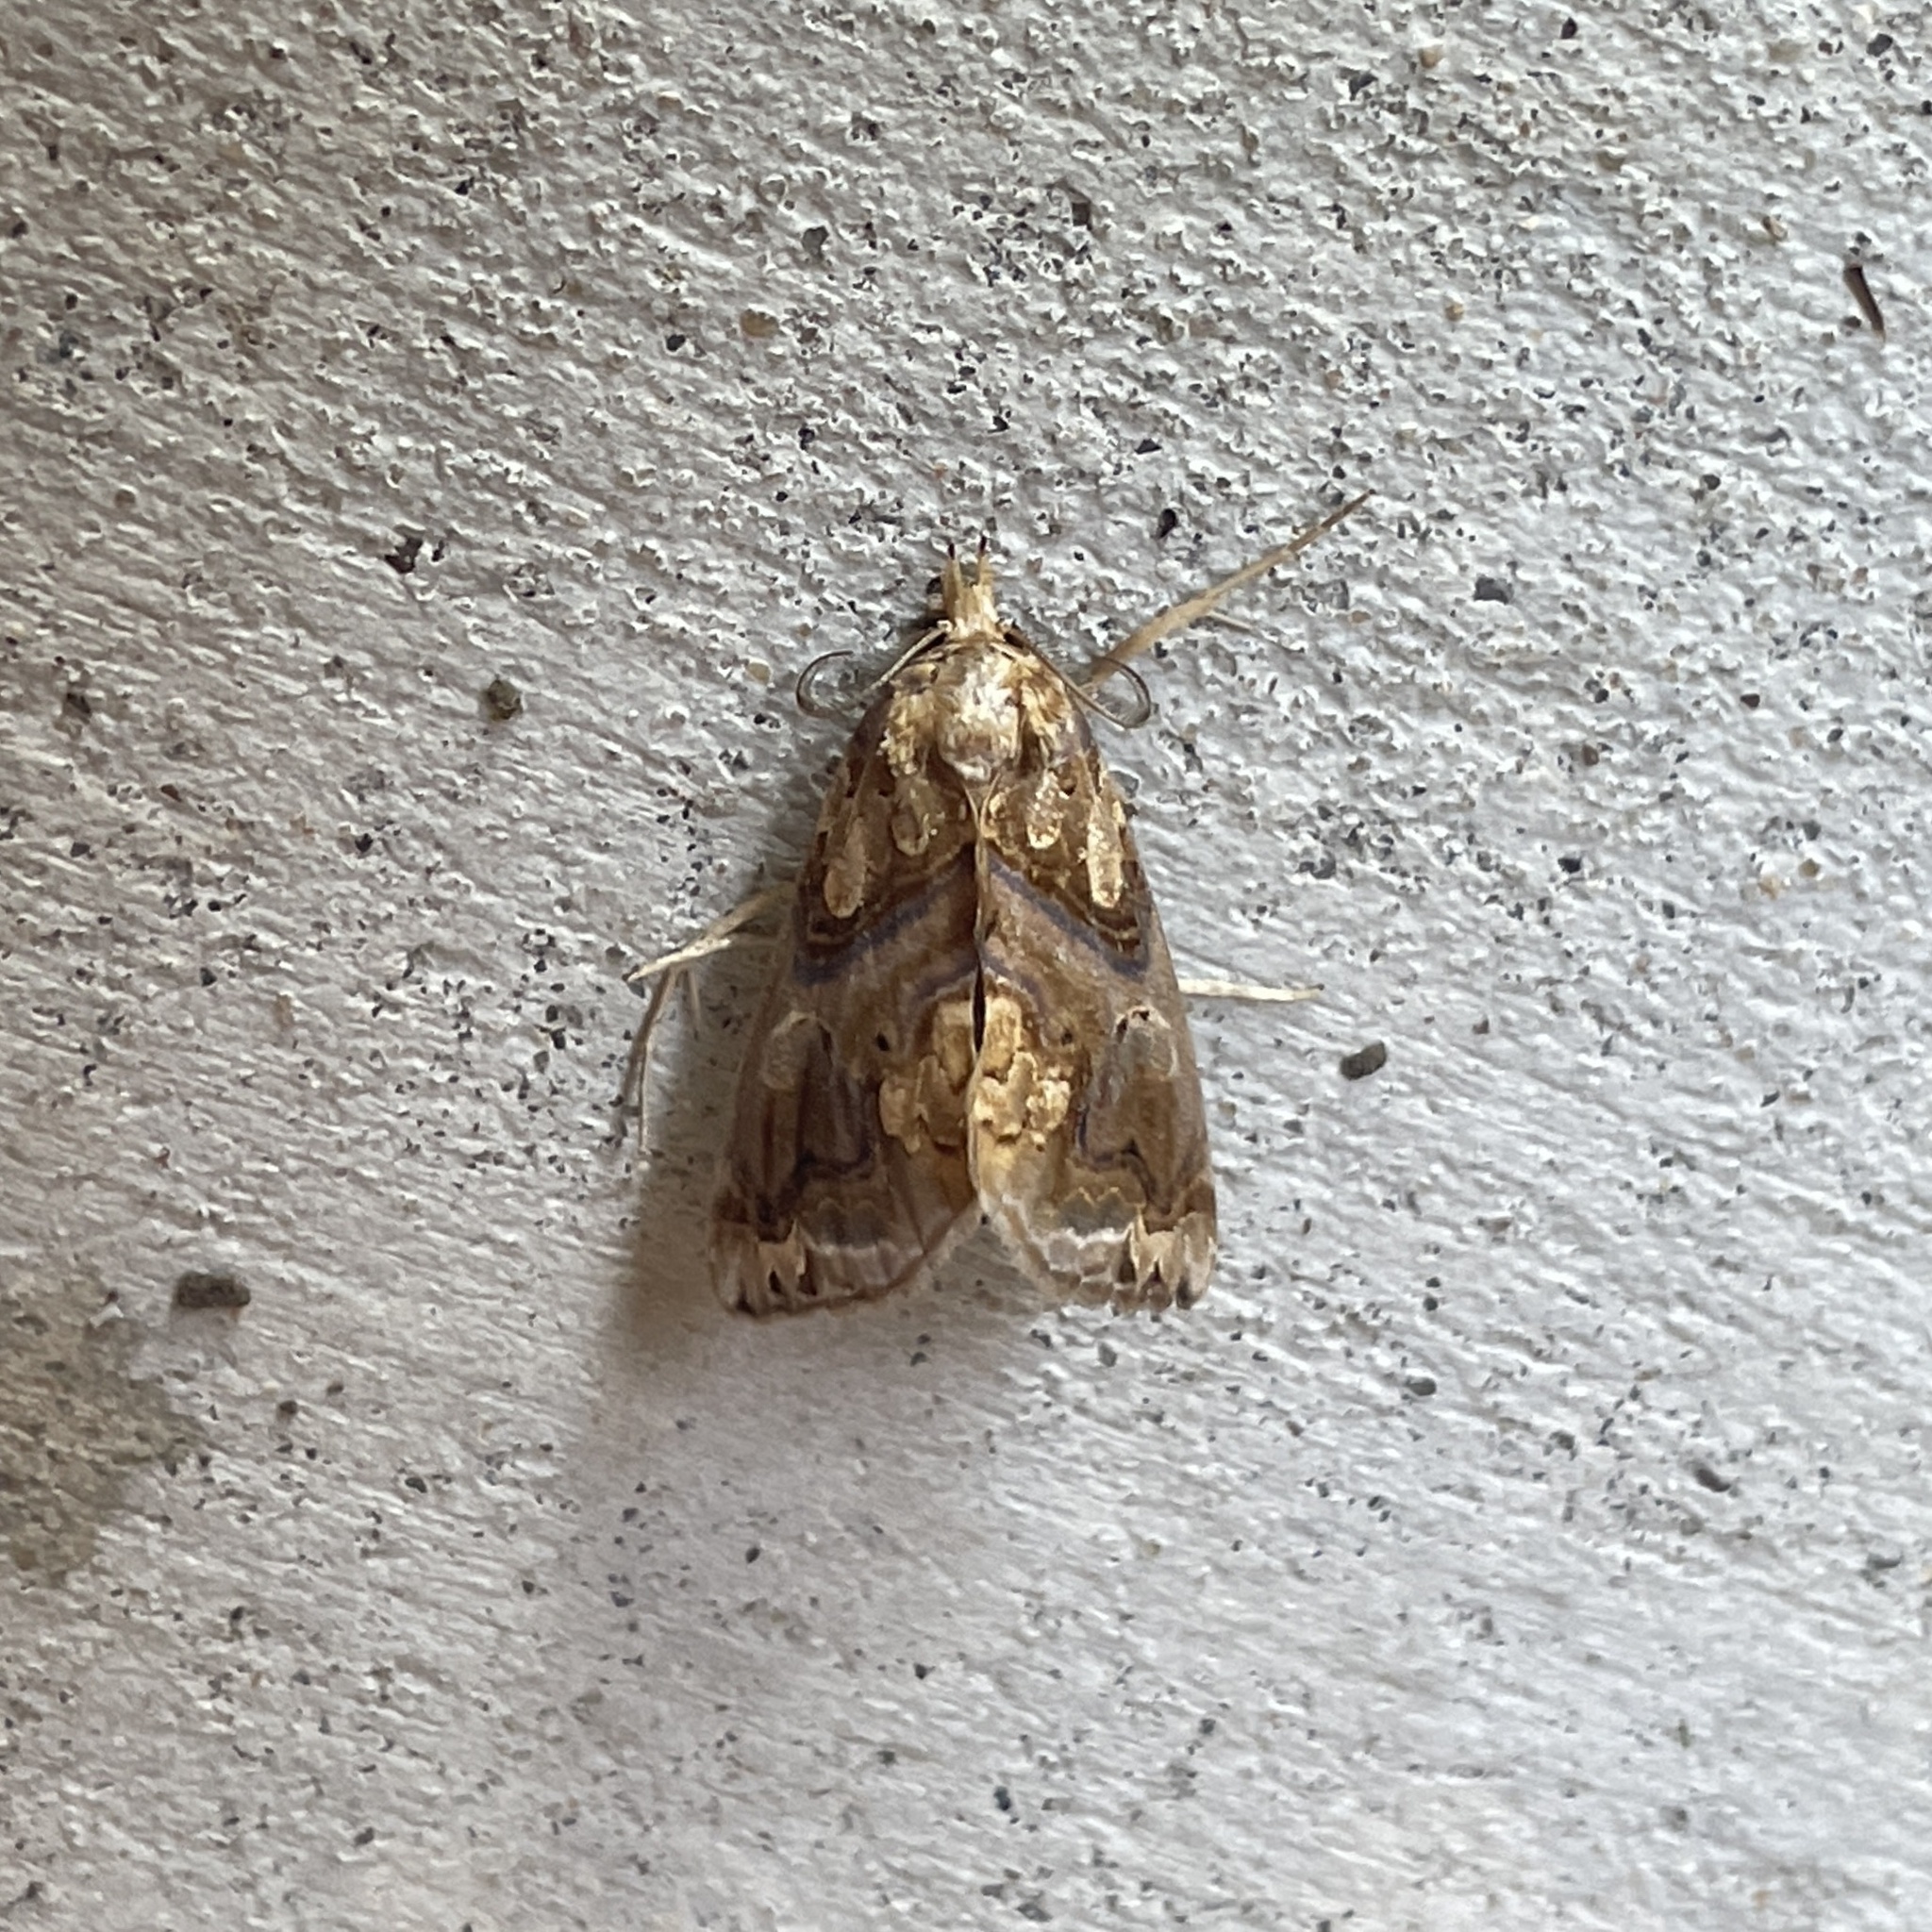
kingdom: Animalia
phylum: Arthropoda
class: Insecta
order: Lepidoptera
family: Erebidae
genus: Plusiodonta
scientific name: Plusiodonta compressipalpis
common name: Moonseed moth
